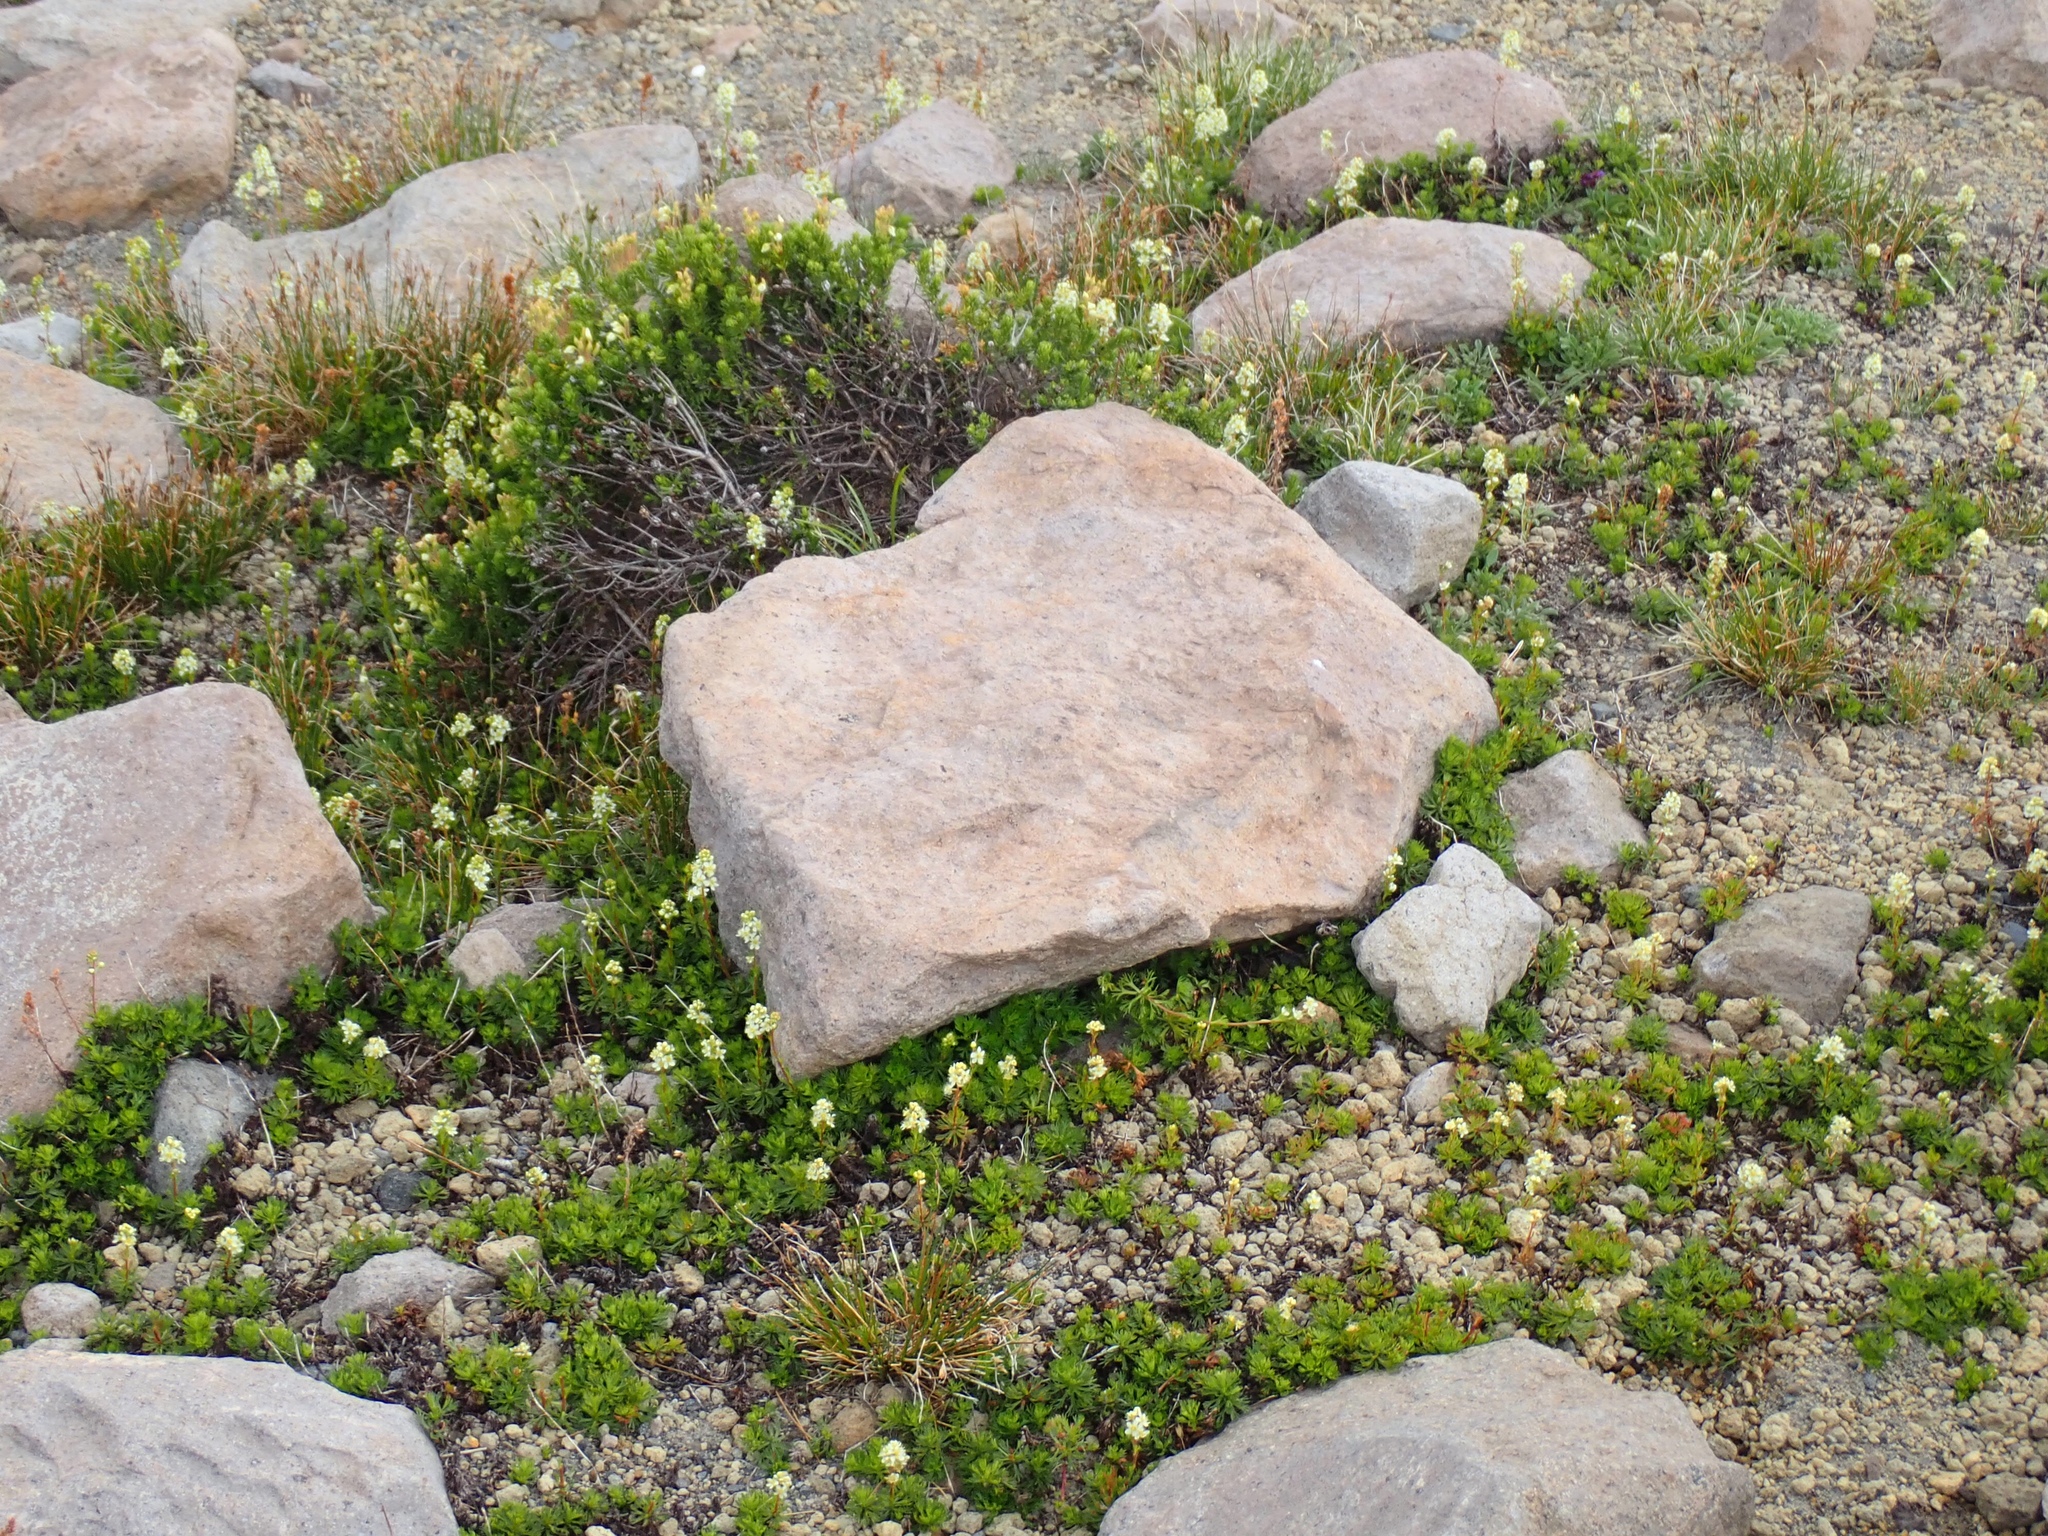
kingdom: Plantae
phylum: Tracheophyta
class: Magnoliopsida
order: Rosales
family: Rosaceae
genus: Luetkea
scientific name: Luetkea pectinata
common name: Partridgefoot
